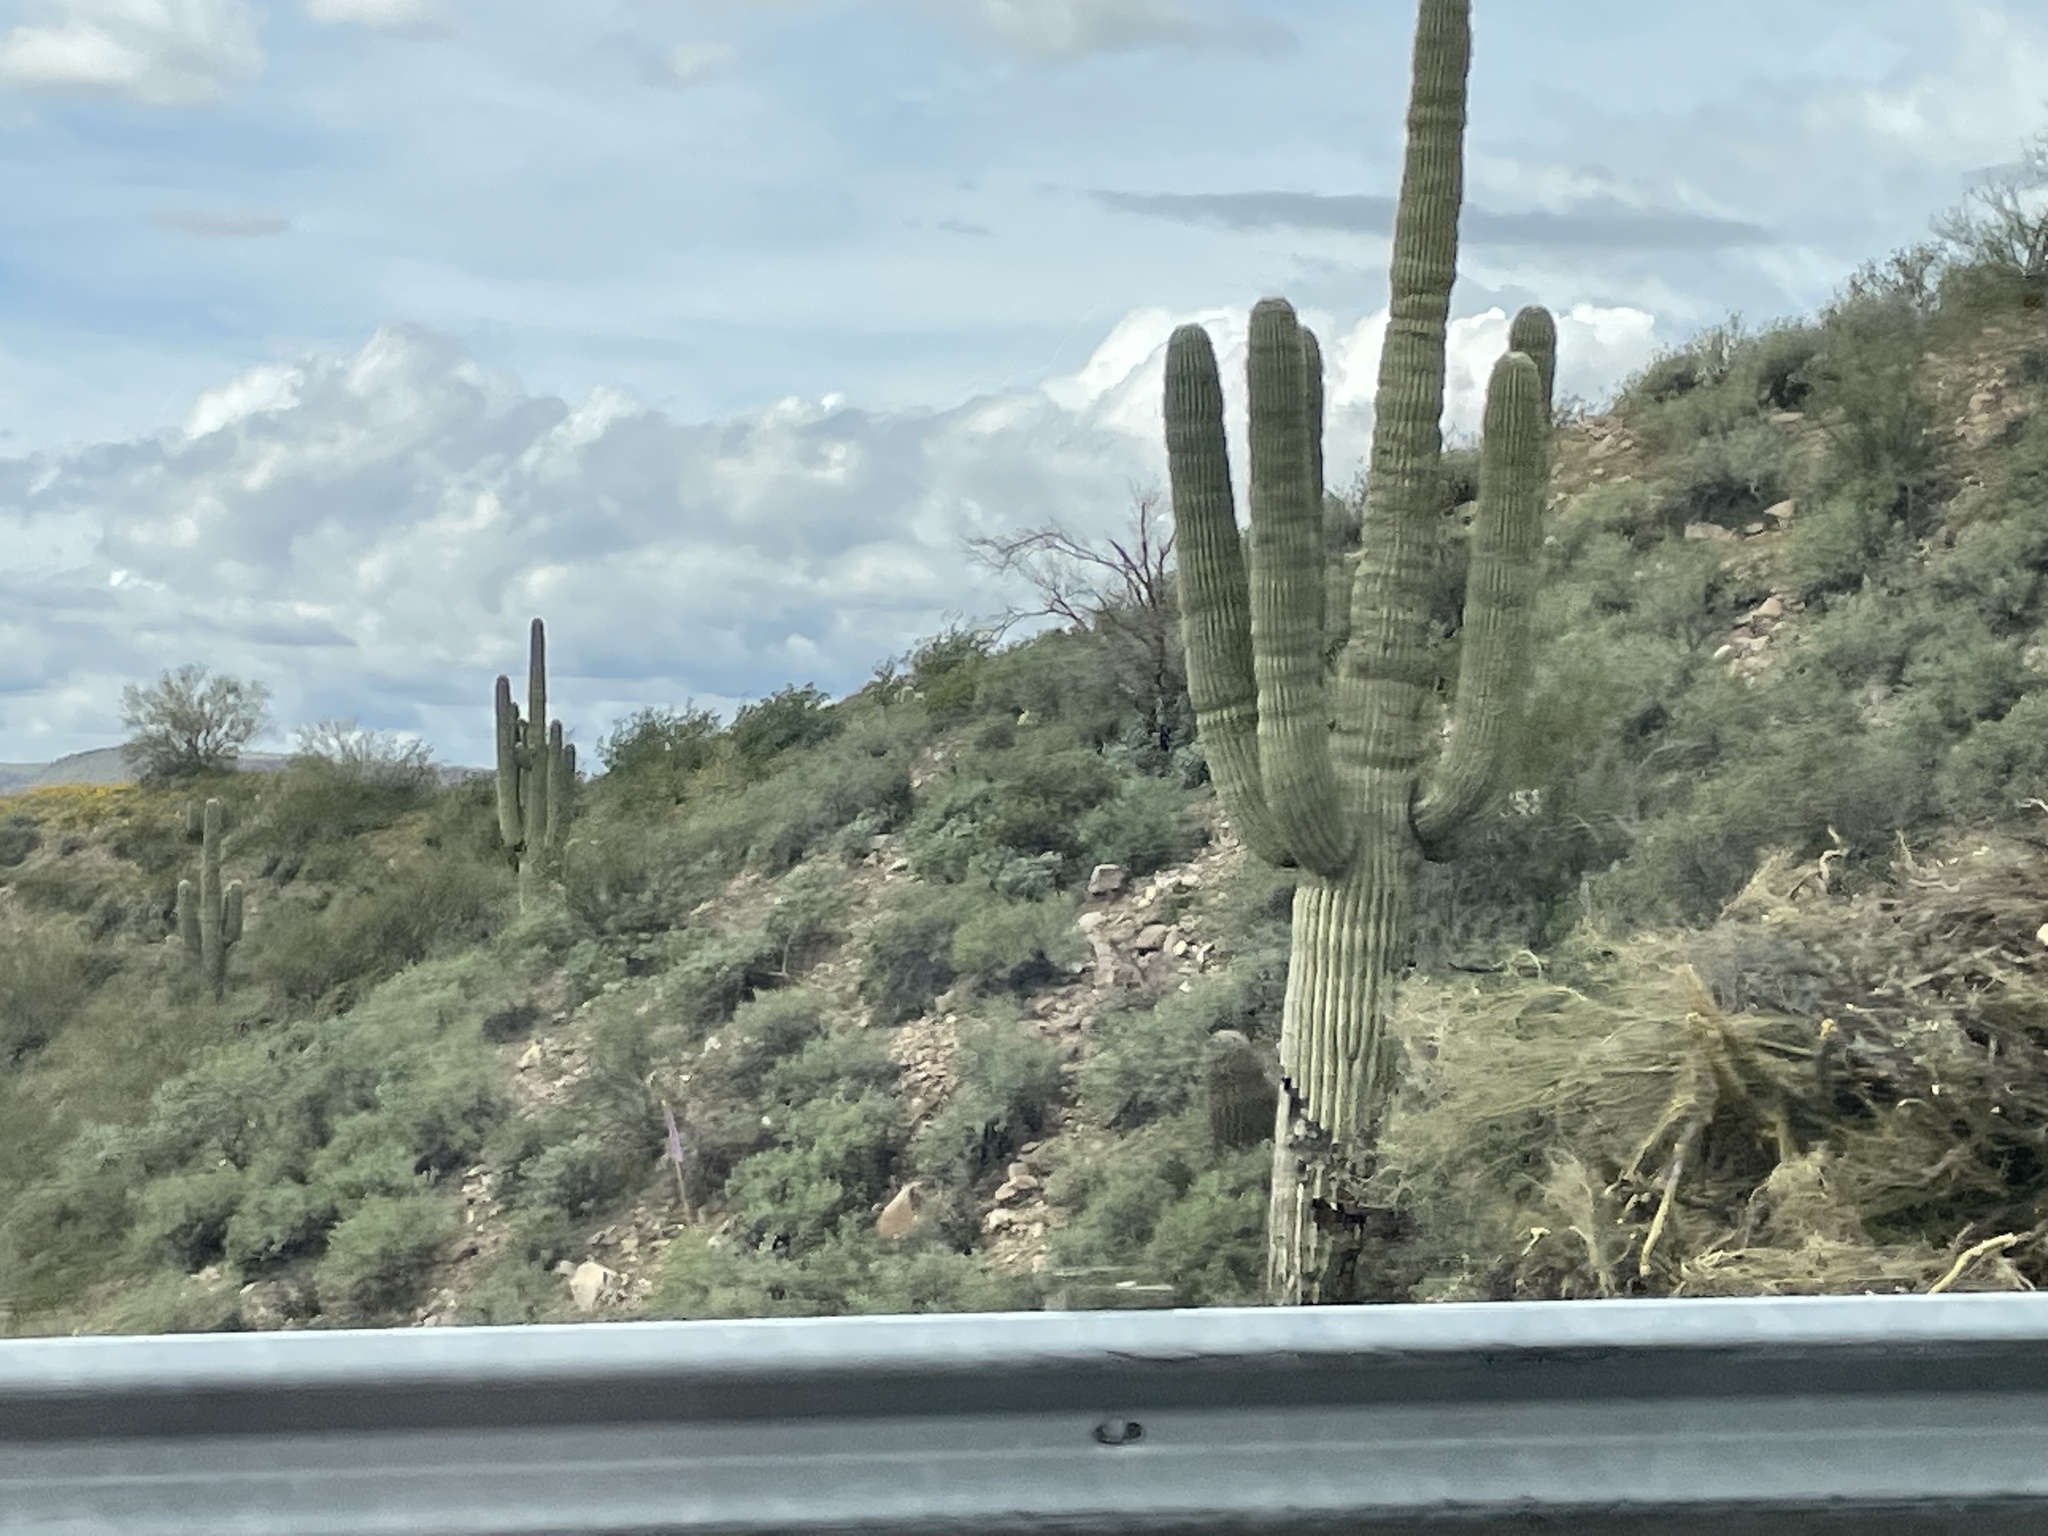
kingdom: Plantae
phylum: Tracheophyta
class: Magnoliopsida
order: Caryophyllales
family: Cactaceae
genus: Carnegiea
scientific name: Carnegiea gigantea
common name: Saguaro
